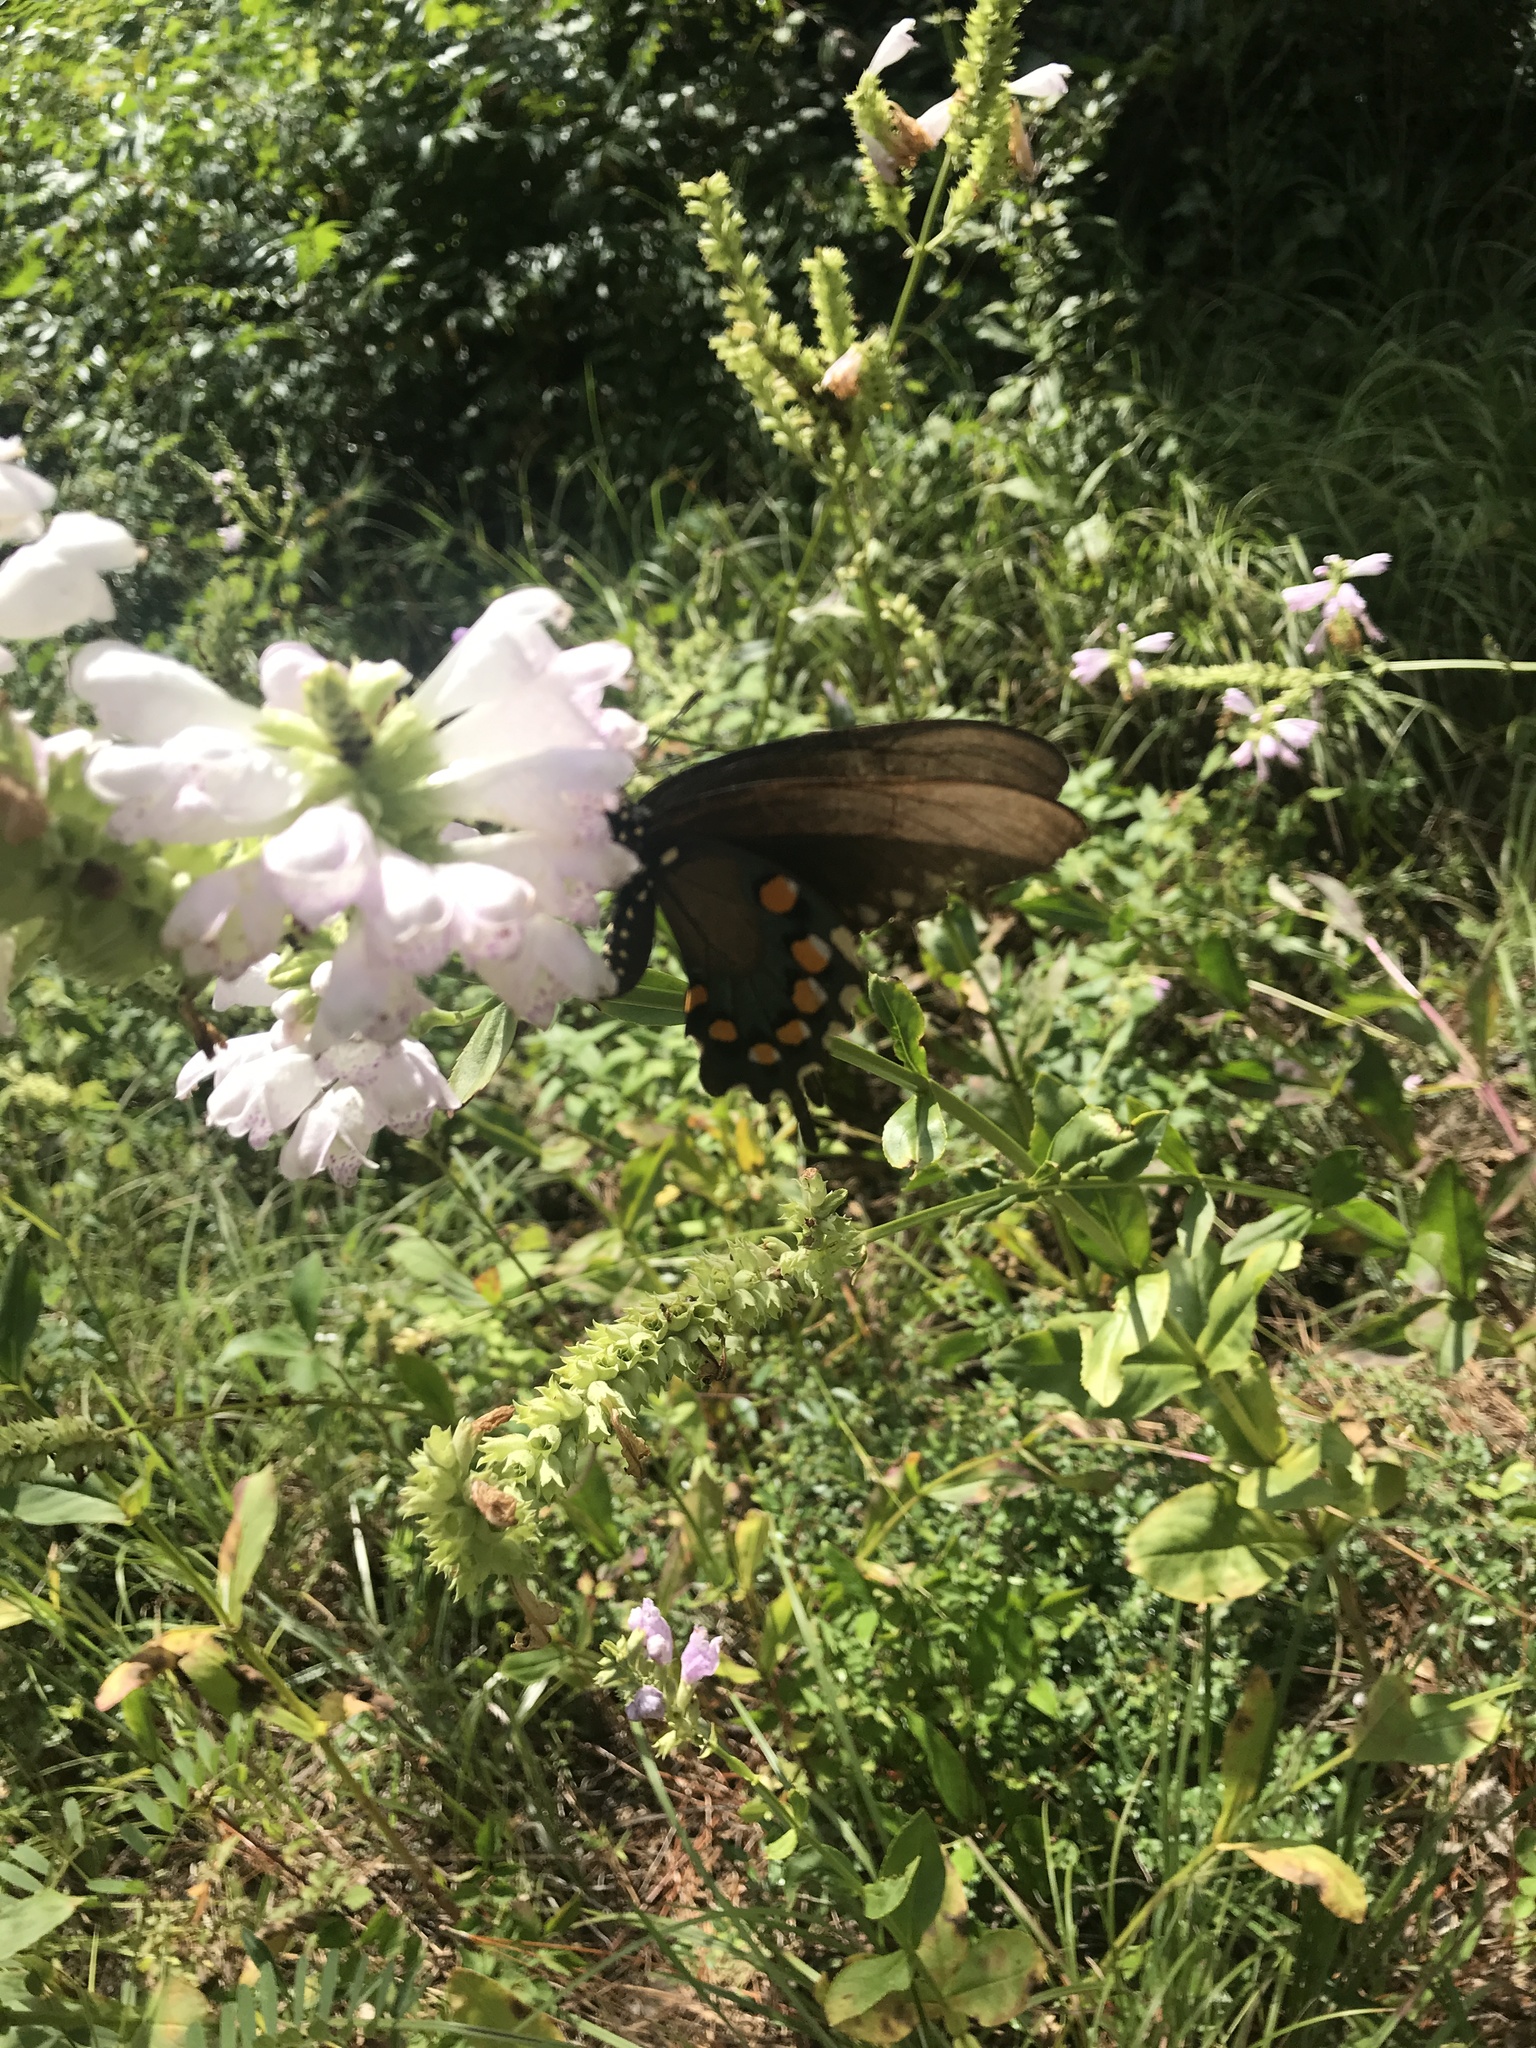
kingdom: Animalia
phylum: Arthropoda
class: Insecta
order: Lepidoptera
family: Papilionidae
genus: Battus
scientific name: Battus philenor
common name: Pipevine swallowtail
